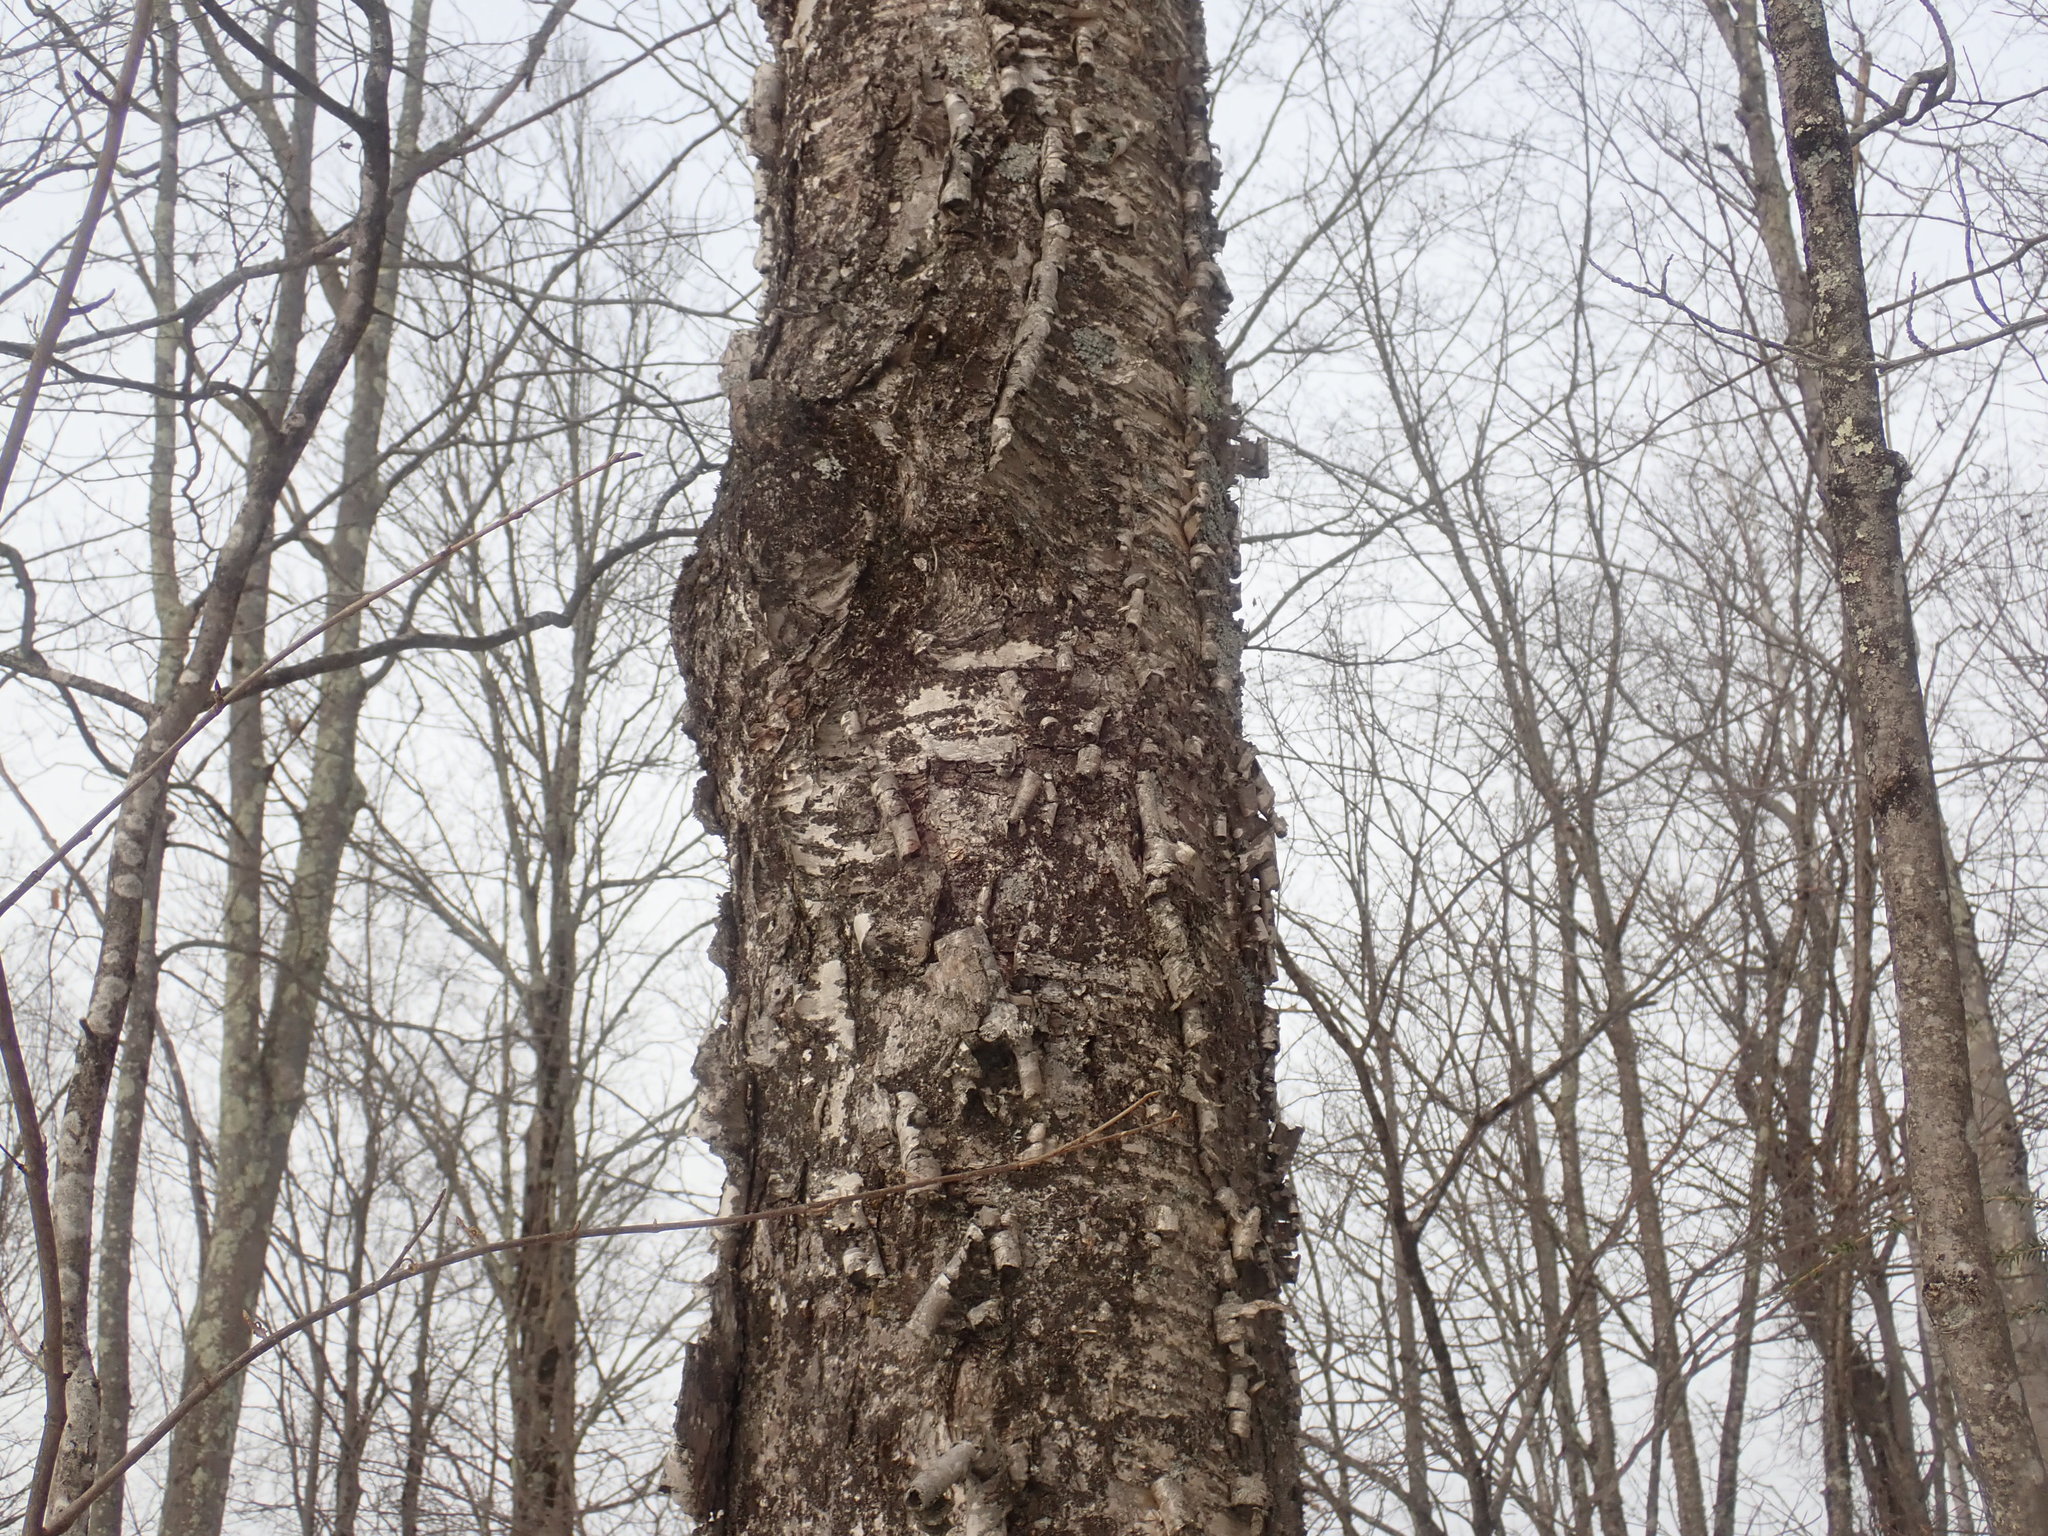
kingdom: Plantae
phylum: Tracheophyta
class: Magnoliopsida
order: Fagales
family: Betulaceae
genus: Betula
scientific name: Betula alleghaniensis
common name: Yellow birch
